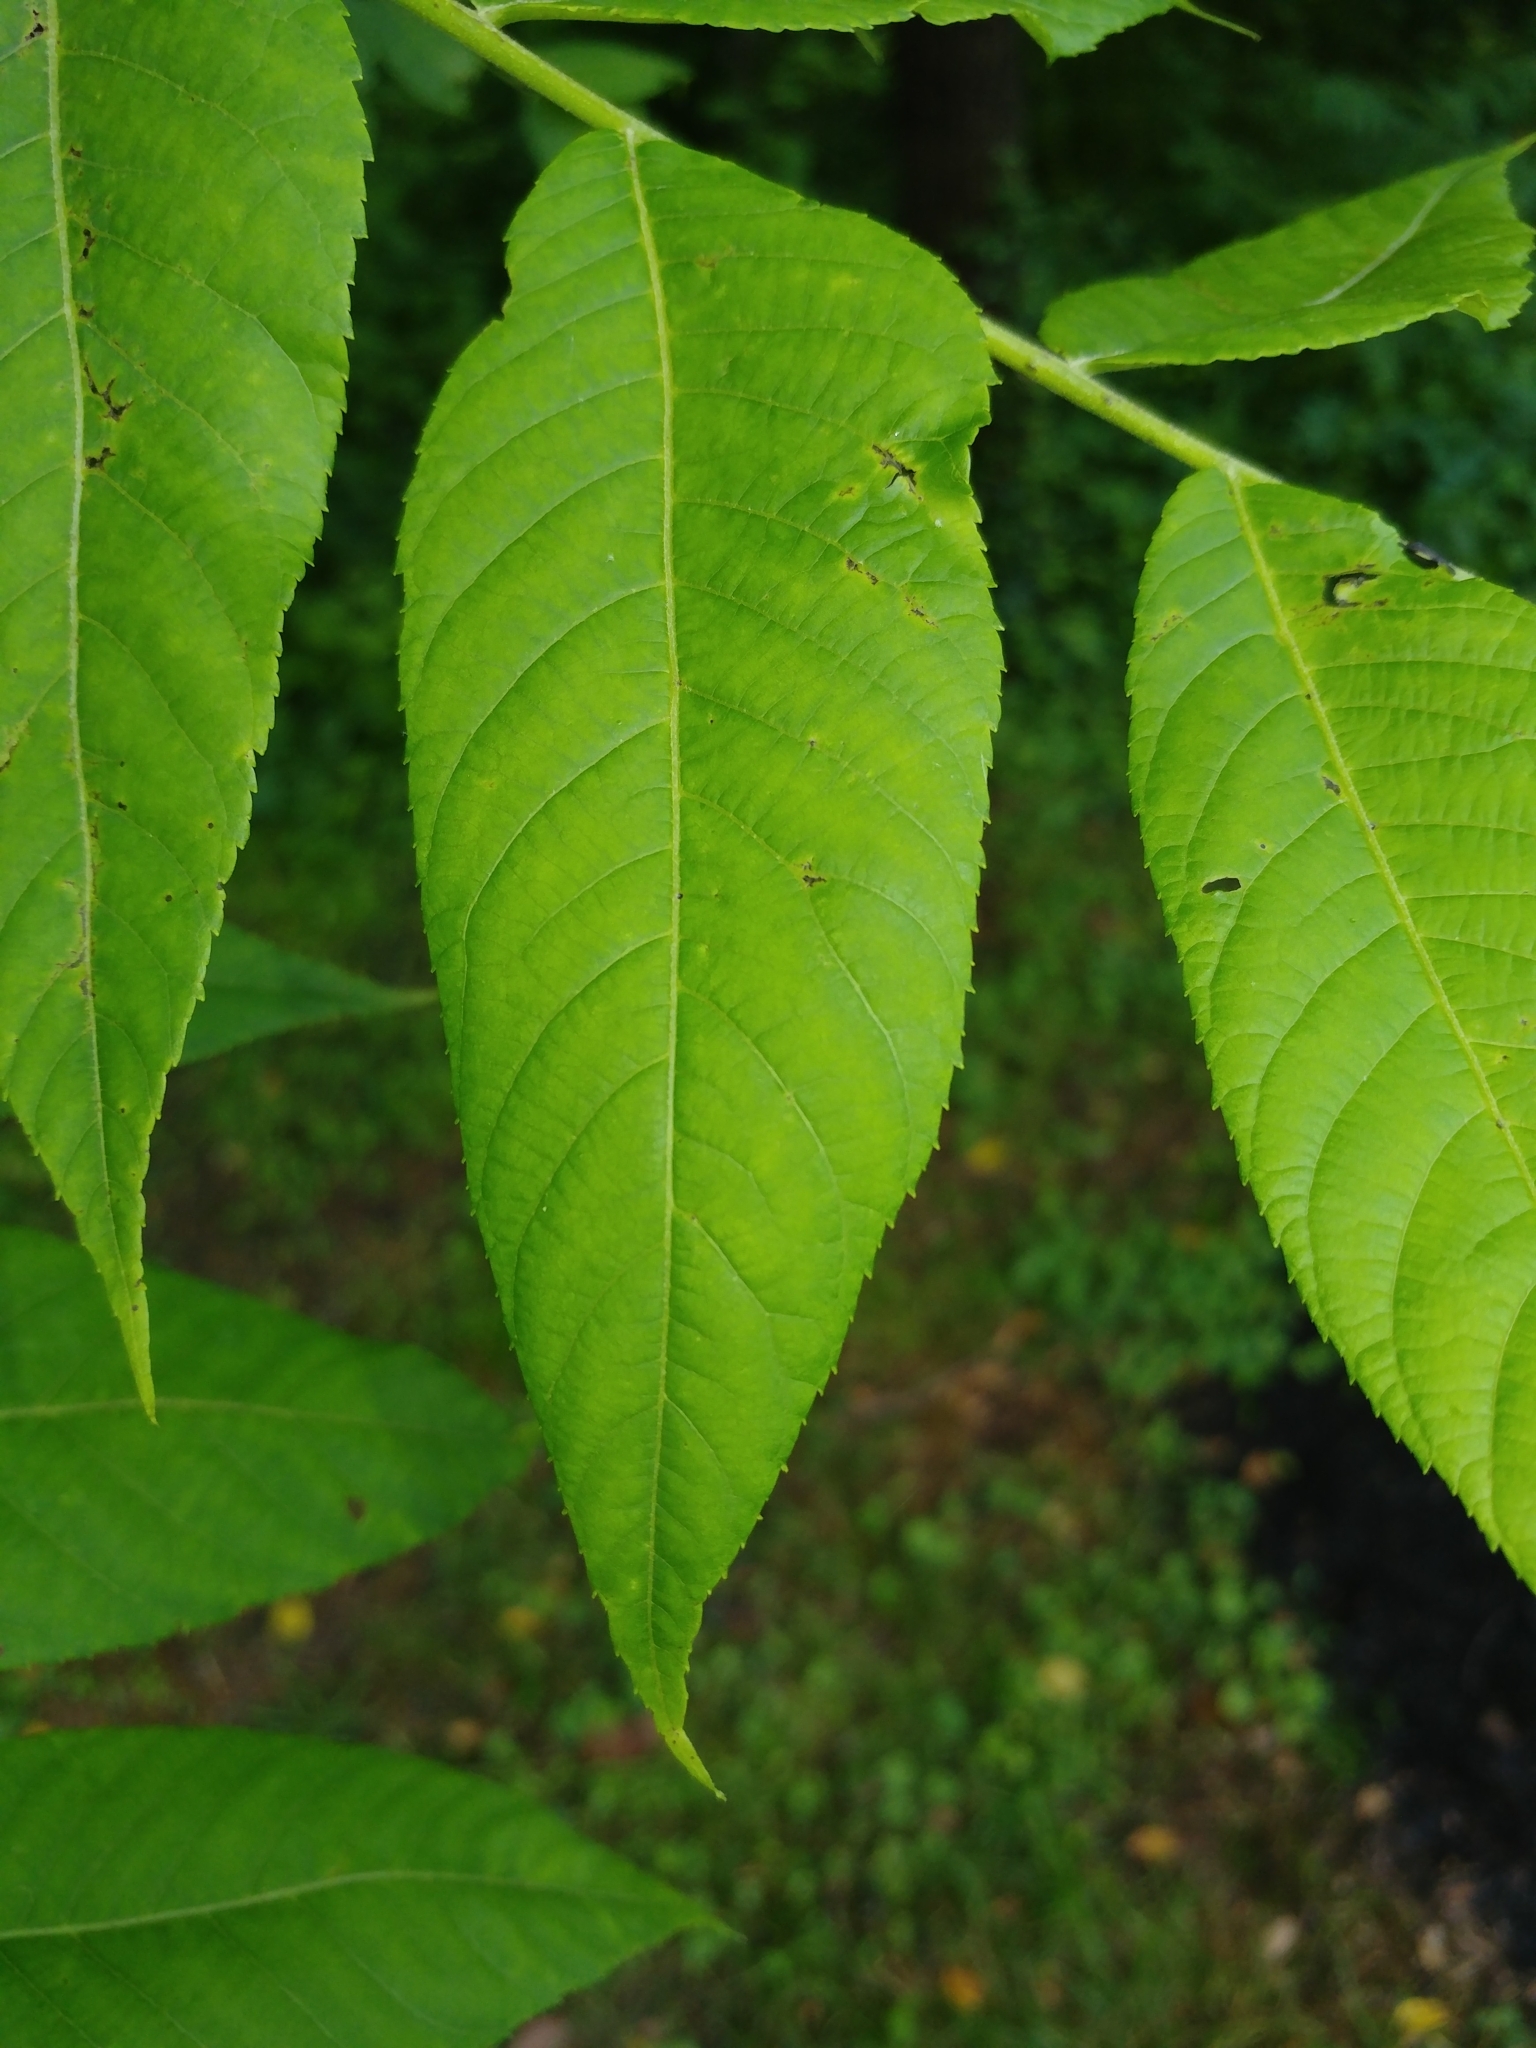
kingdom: Plantae
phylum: Tracheophyta
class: Magnoliopsida
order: Fagales
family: Juglandaceae
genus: Juglans
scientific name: Juglans nigra
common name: Black walnut
